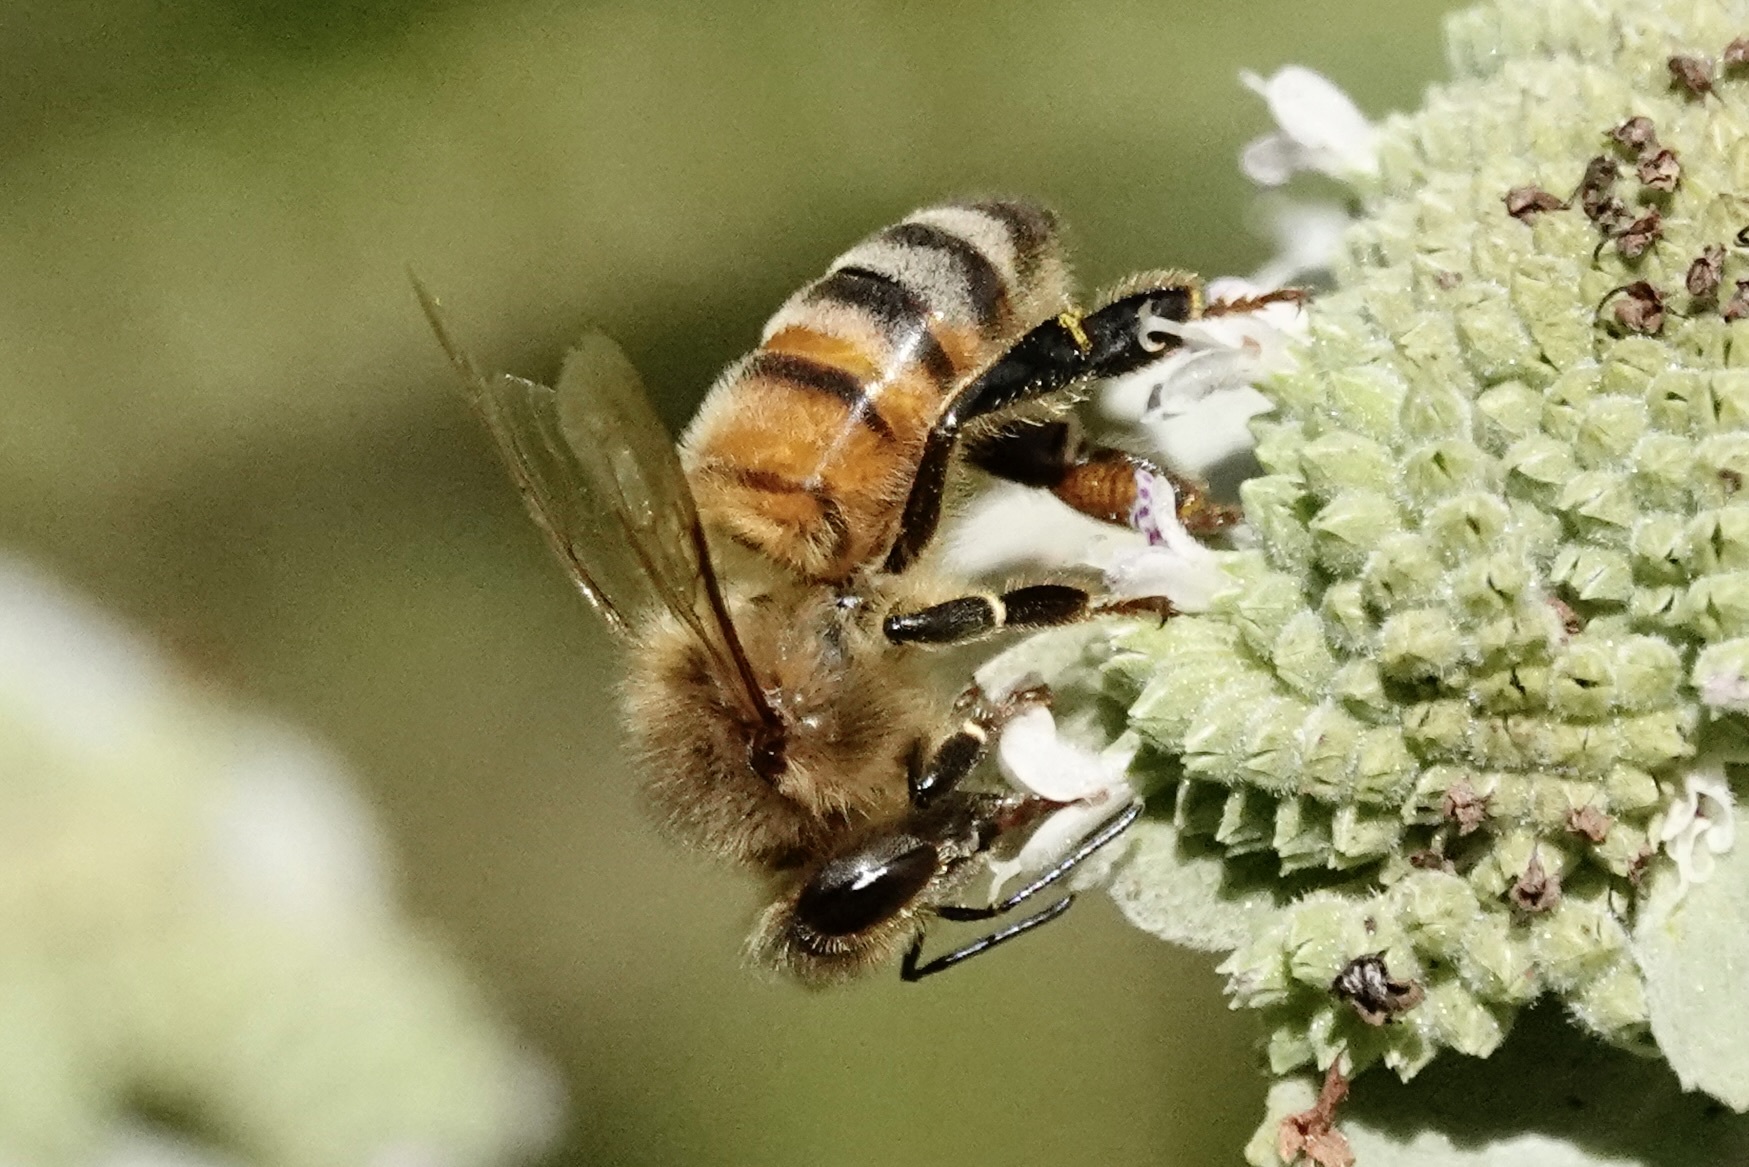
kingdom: Animalia
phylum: Arthropoda
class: Insecta
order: Hymenoptera
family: Apidae
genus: Apis
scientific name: Apis mellifera
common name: Honey bee
